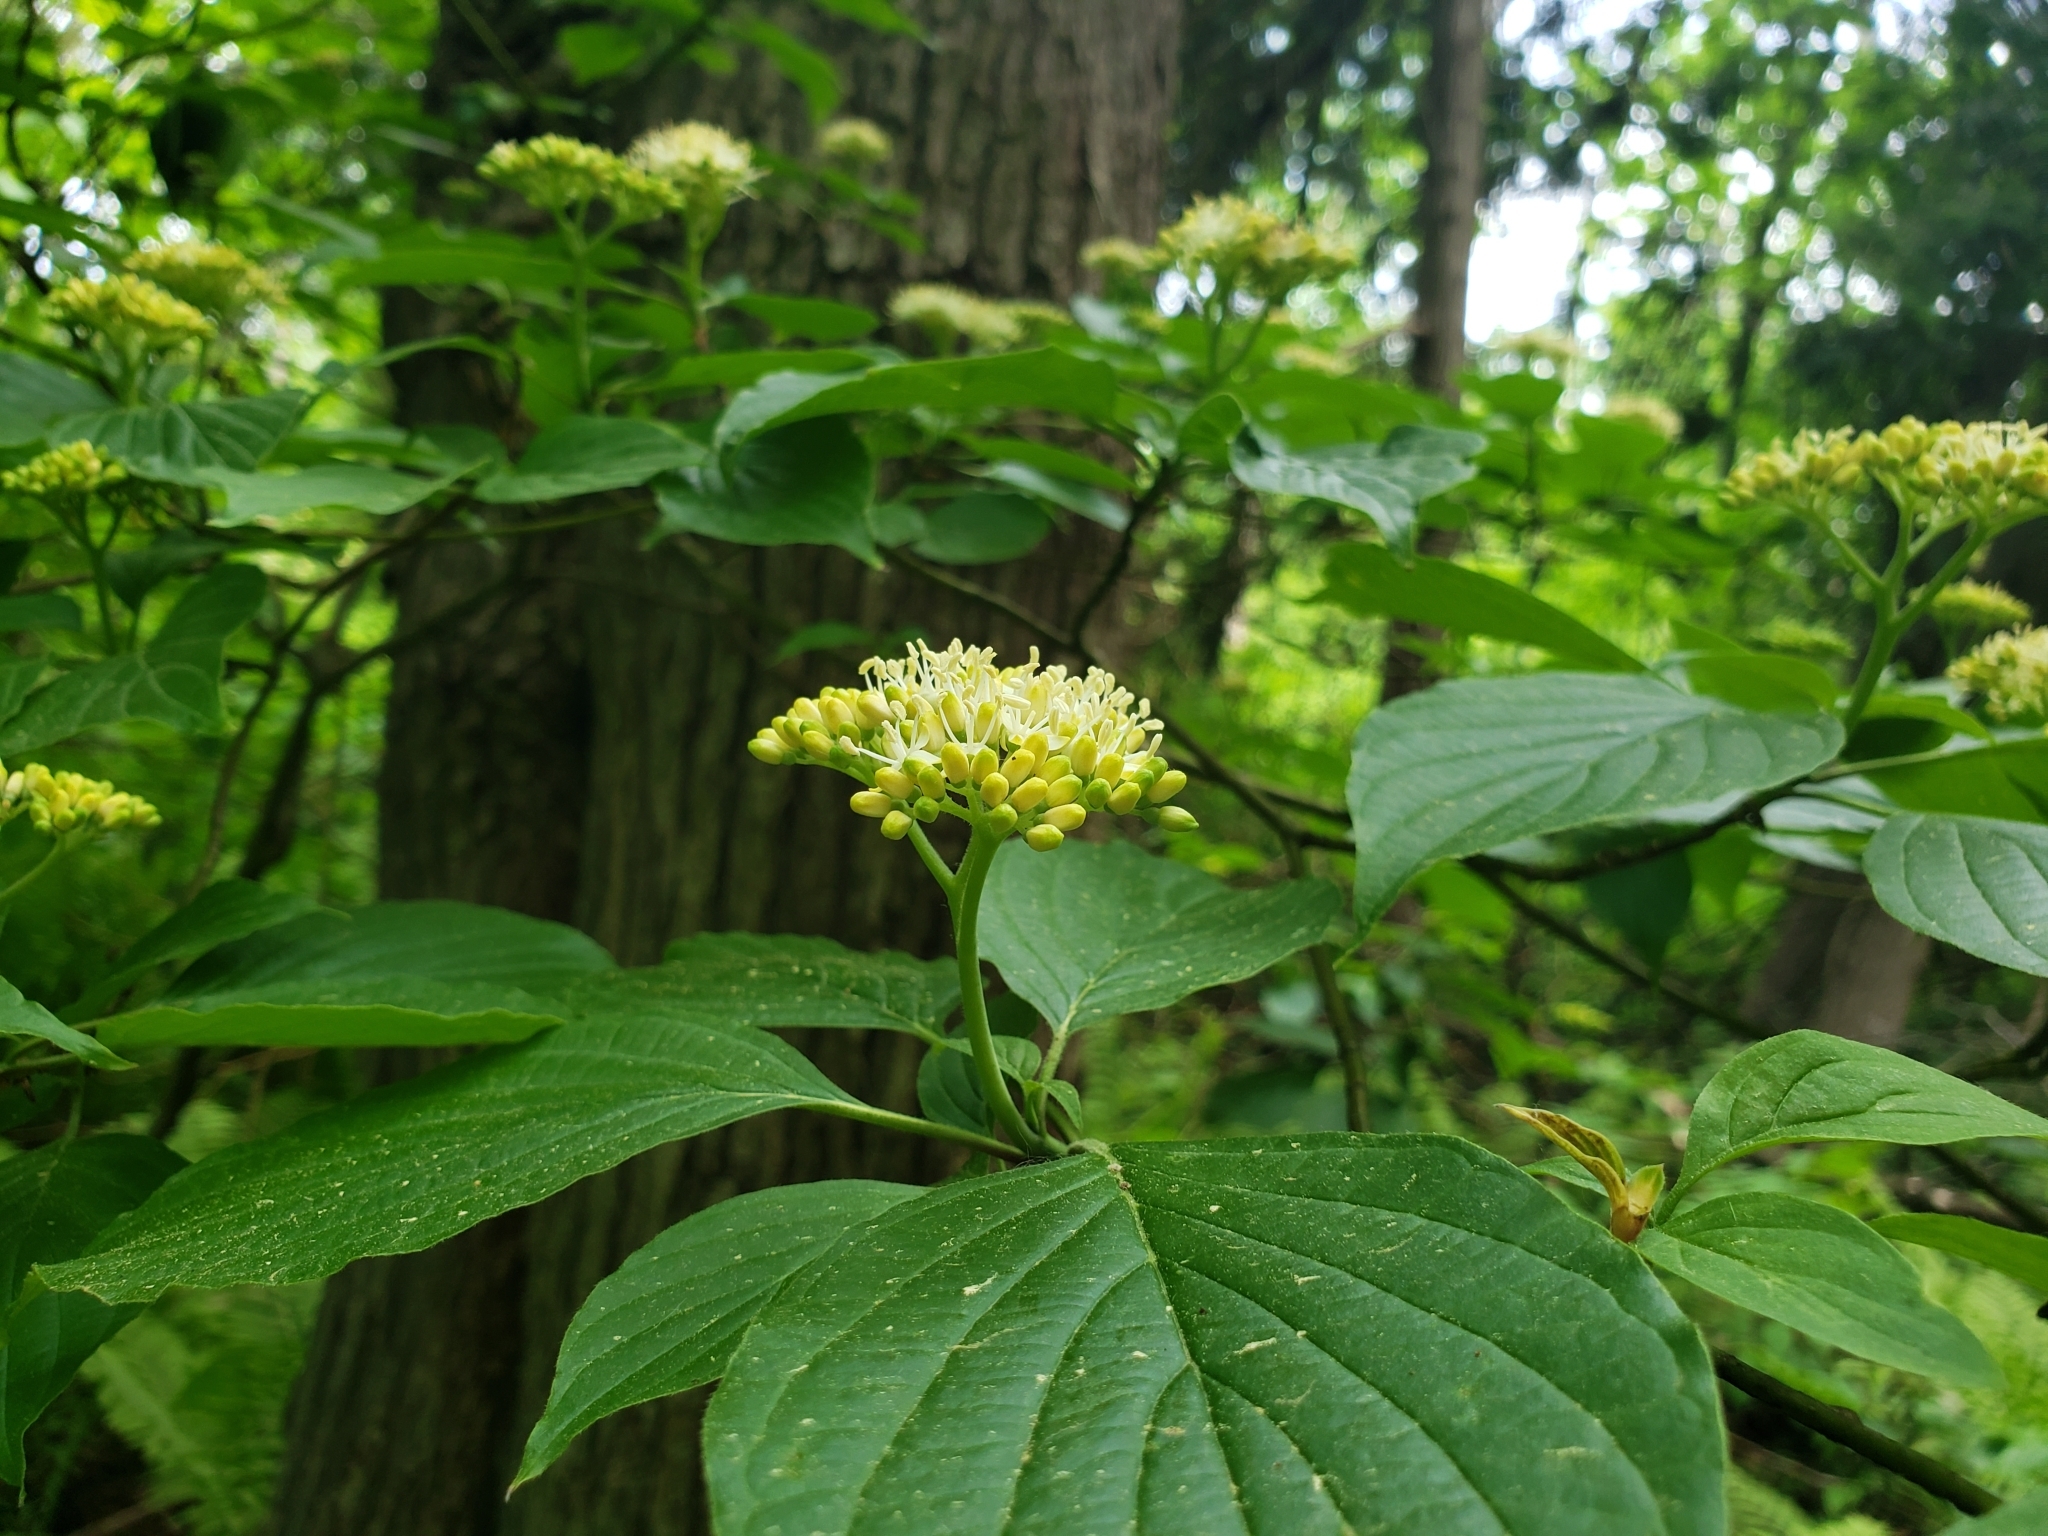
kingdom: Plantae
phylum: Tracheophyta
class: Magnoliopsida
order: Cornales
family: Cornaceae
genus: Cornus
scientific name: Cornus alternifolia
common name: Pagoda dogwood
